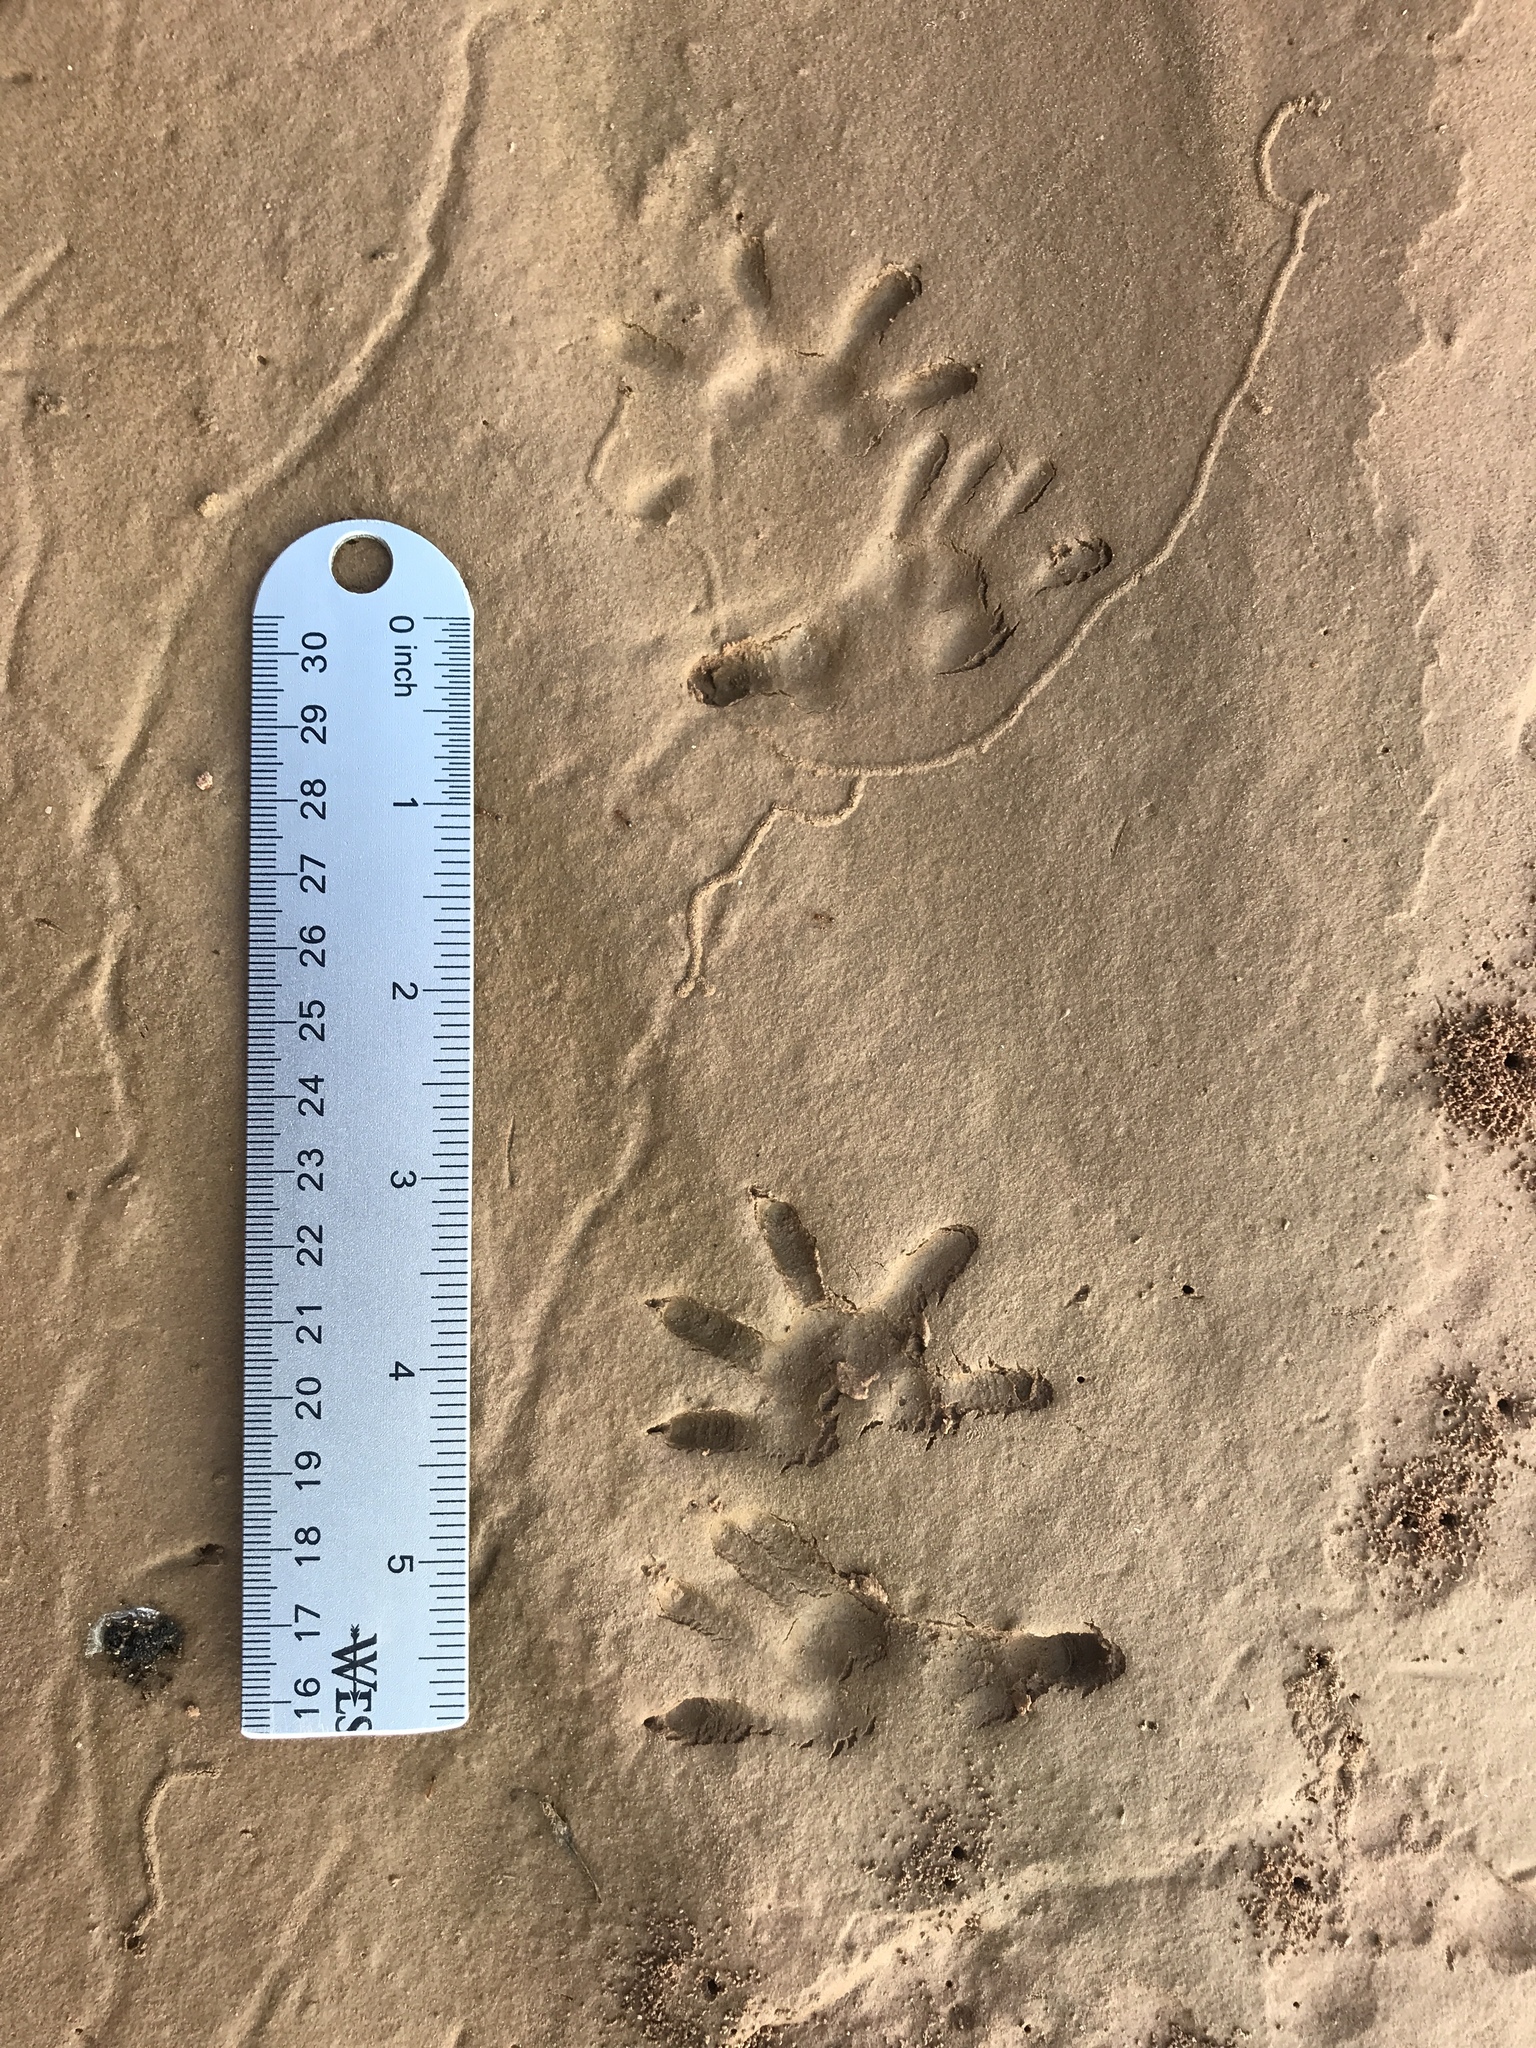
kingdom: Animalia
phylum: Chordata
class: Mammalia
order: Didelphimorphia
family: Didelphidae
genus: Didelphis
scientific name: Didelphis virginiana
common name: Virginia opossum
